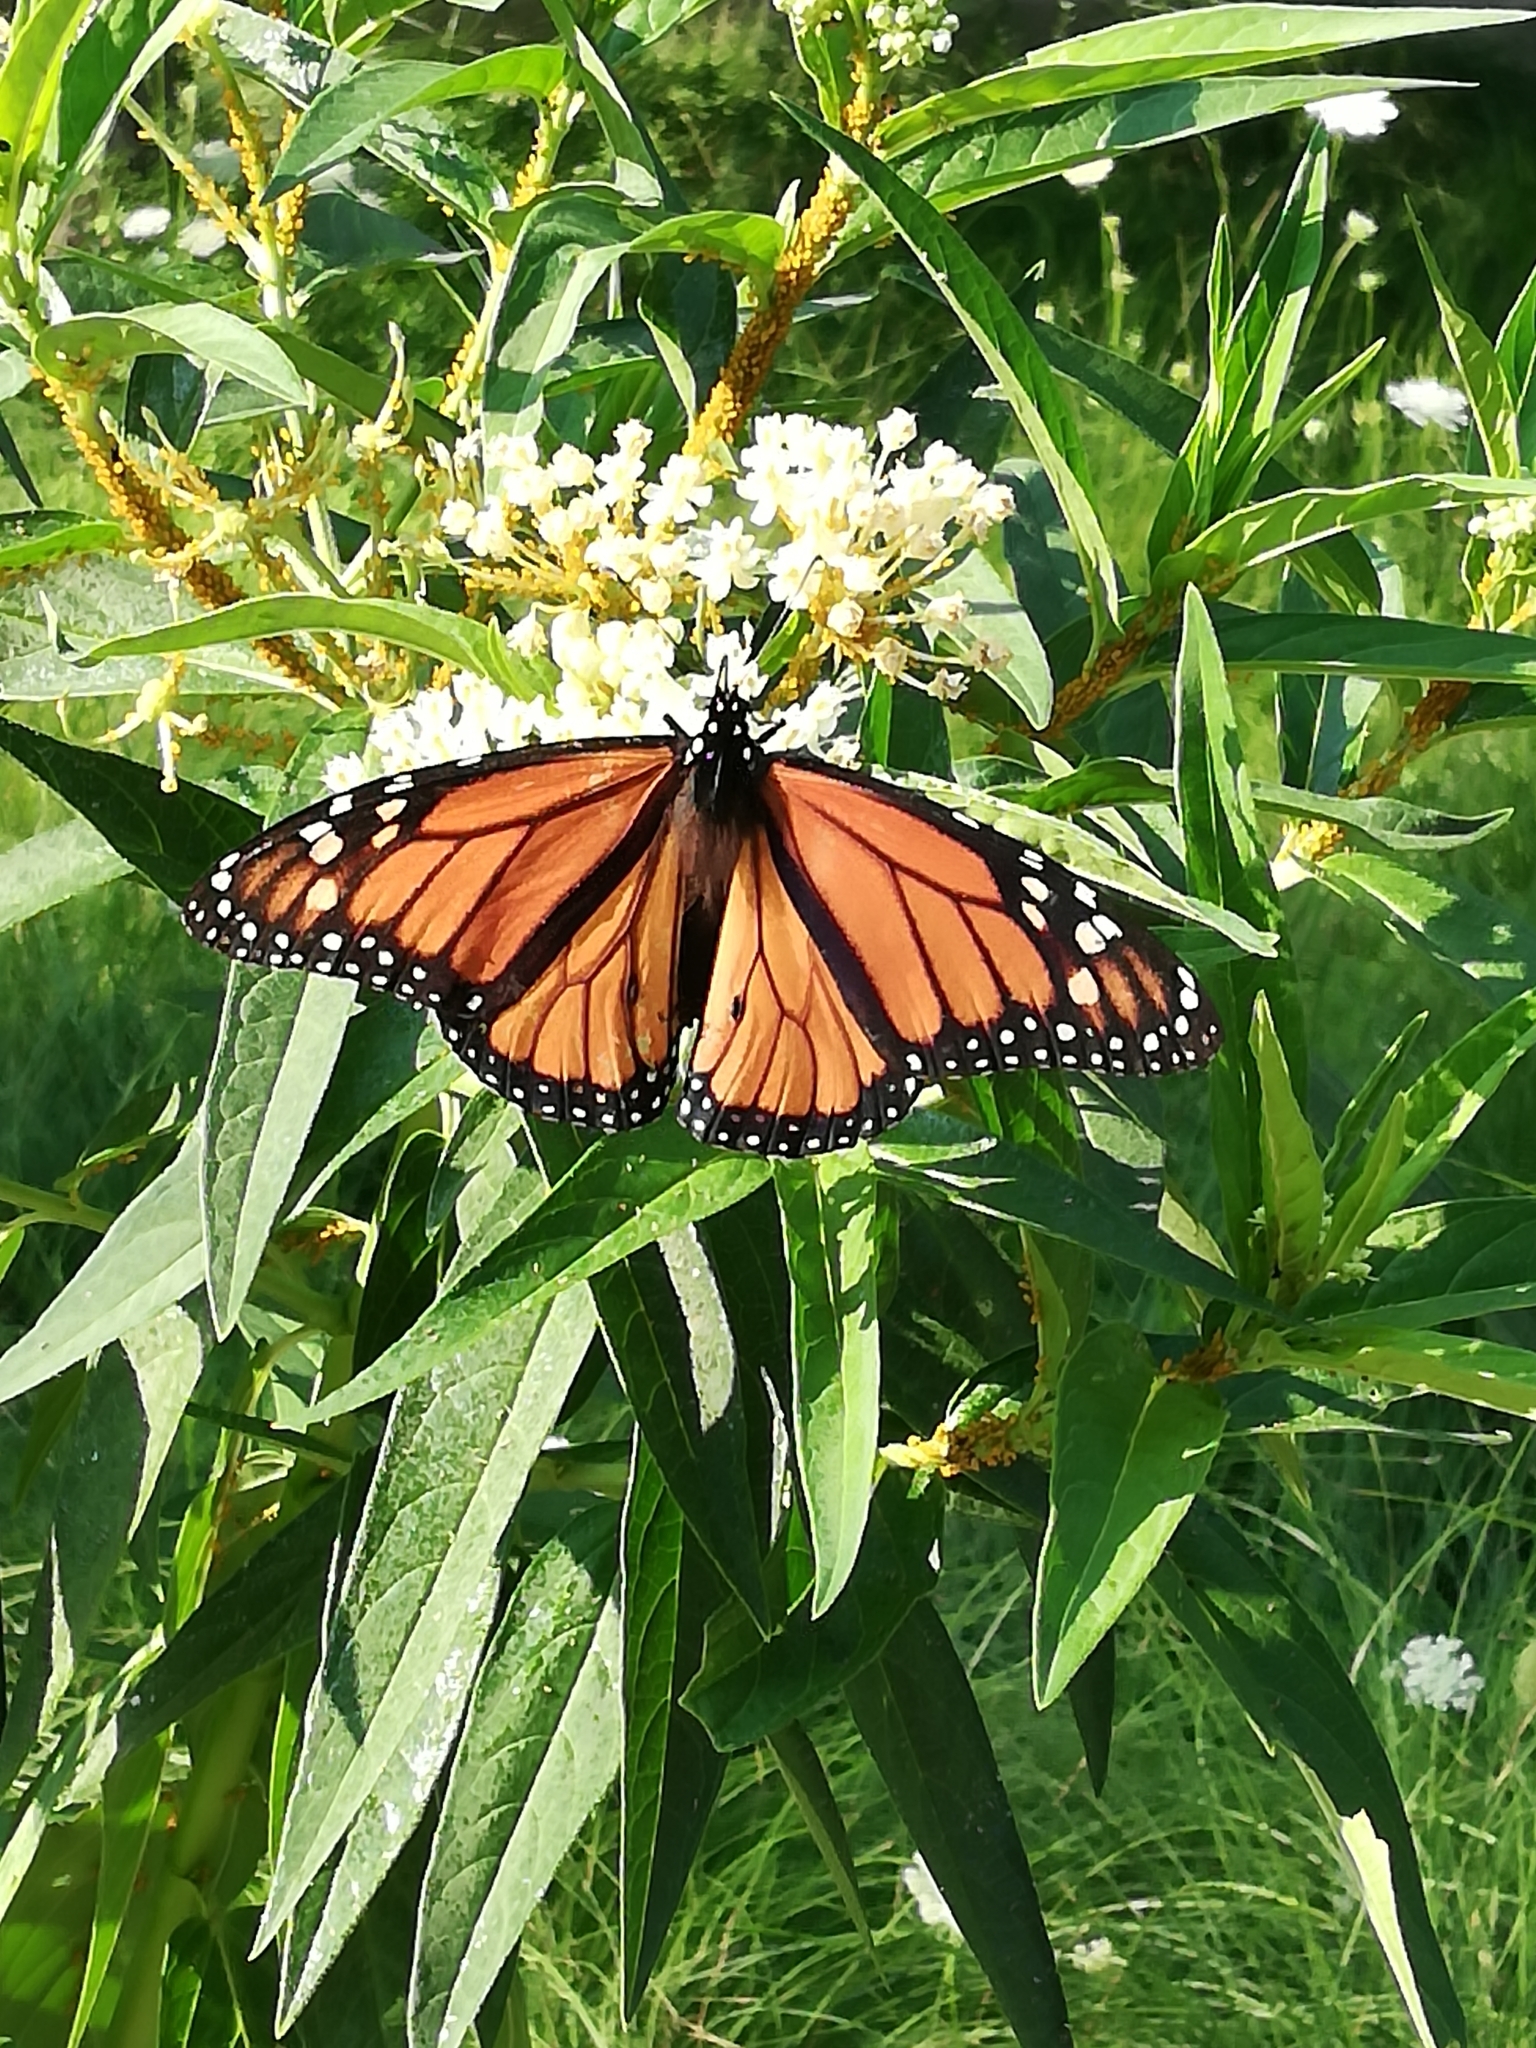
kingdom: Animalia
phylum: Arthropoda
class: Insecta
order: Lepidoptera
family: Nymphalidae
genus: Danaus
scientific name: Danaus plexippus
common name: Monarch
